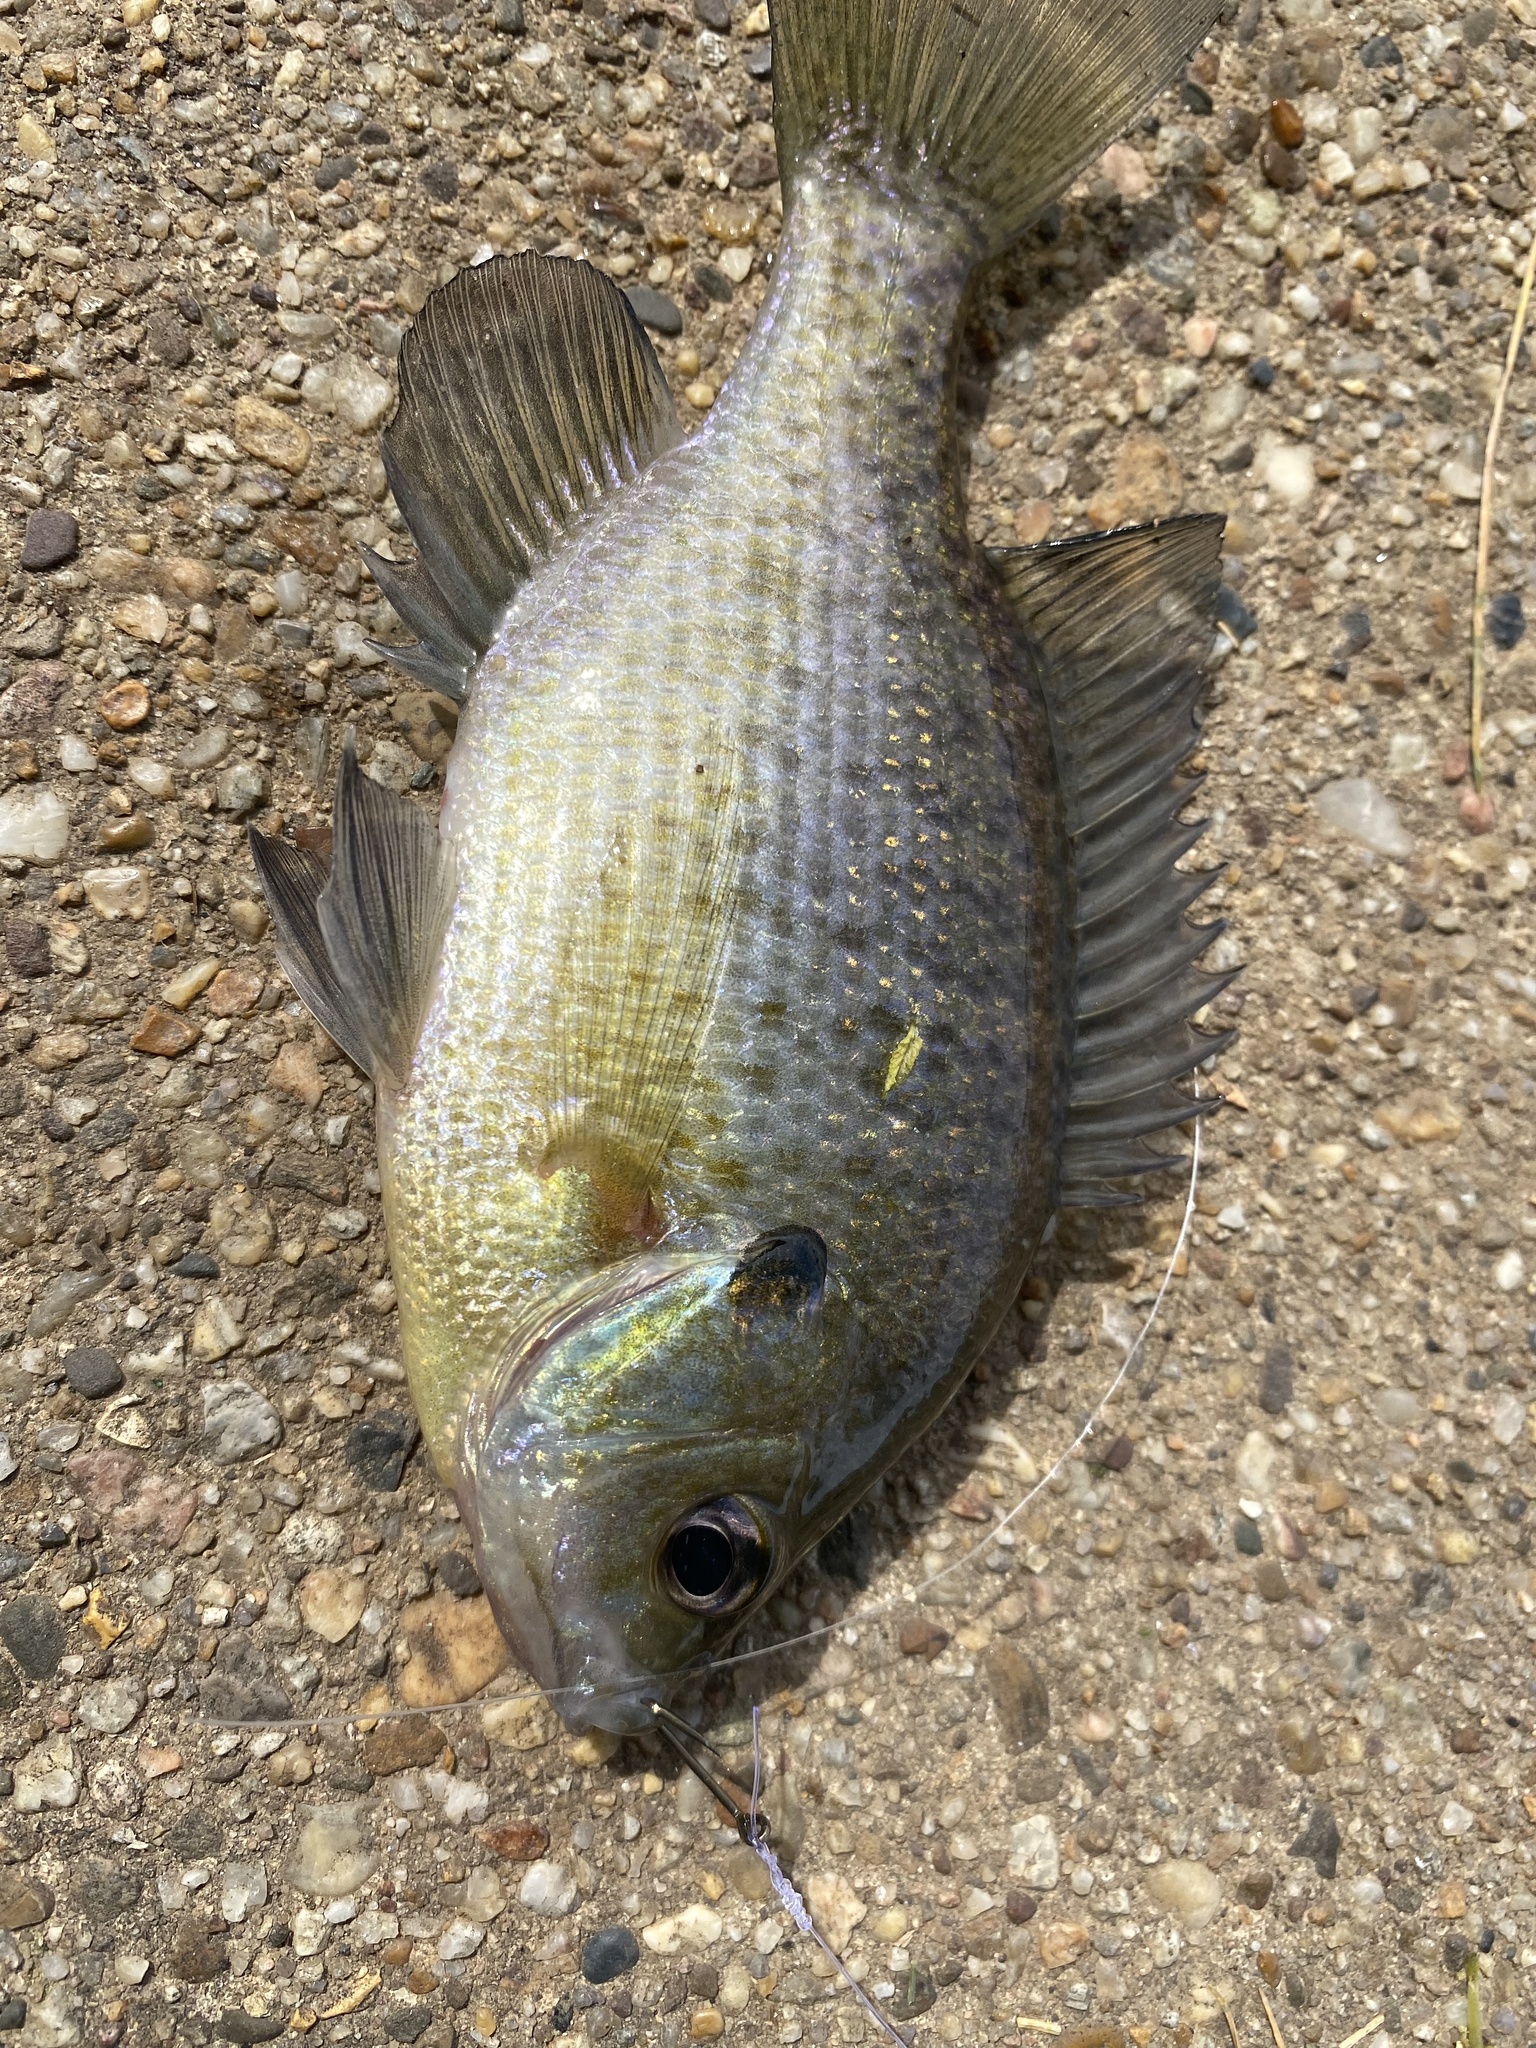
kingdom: Animalia
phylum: Chordata
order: Perciformes
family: Centrarchidae
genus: Lepomis
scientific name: Lepomis macrochirus
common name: Bluegill
